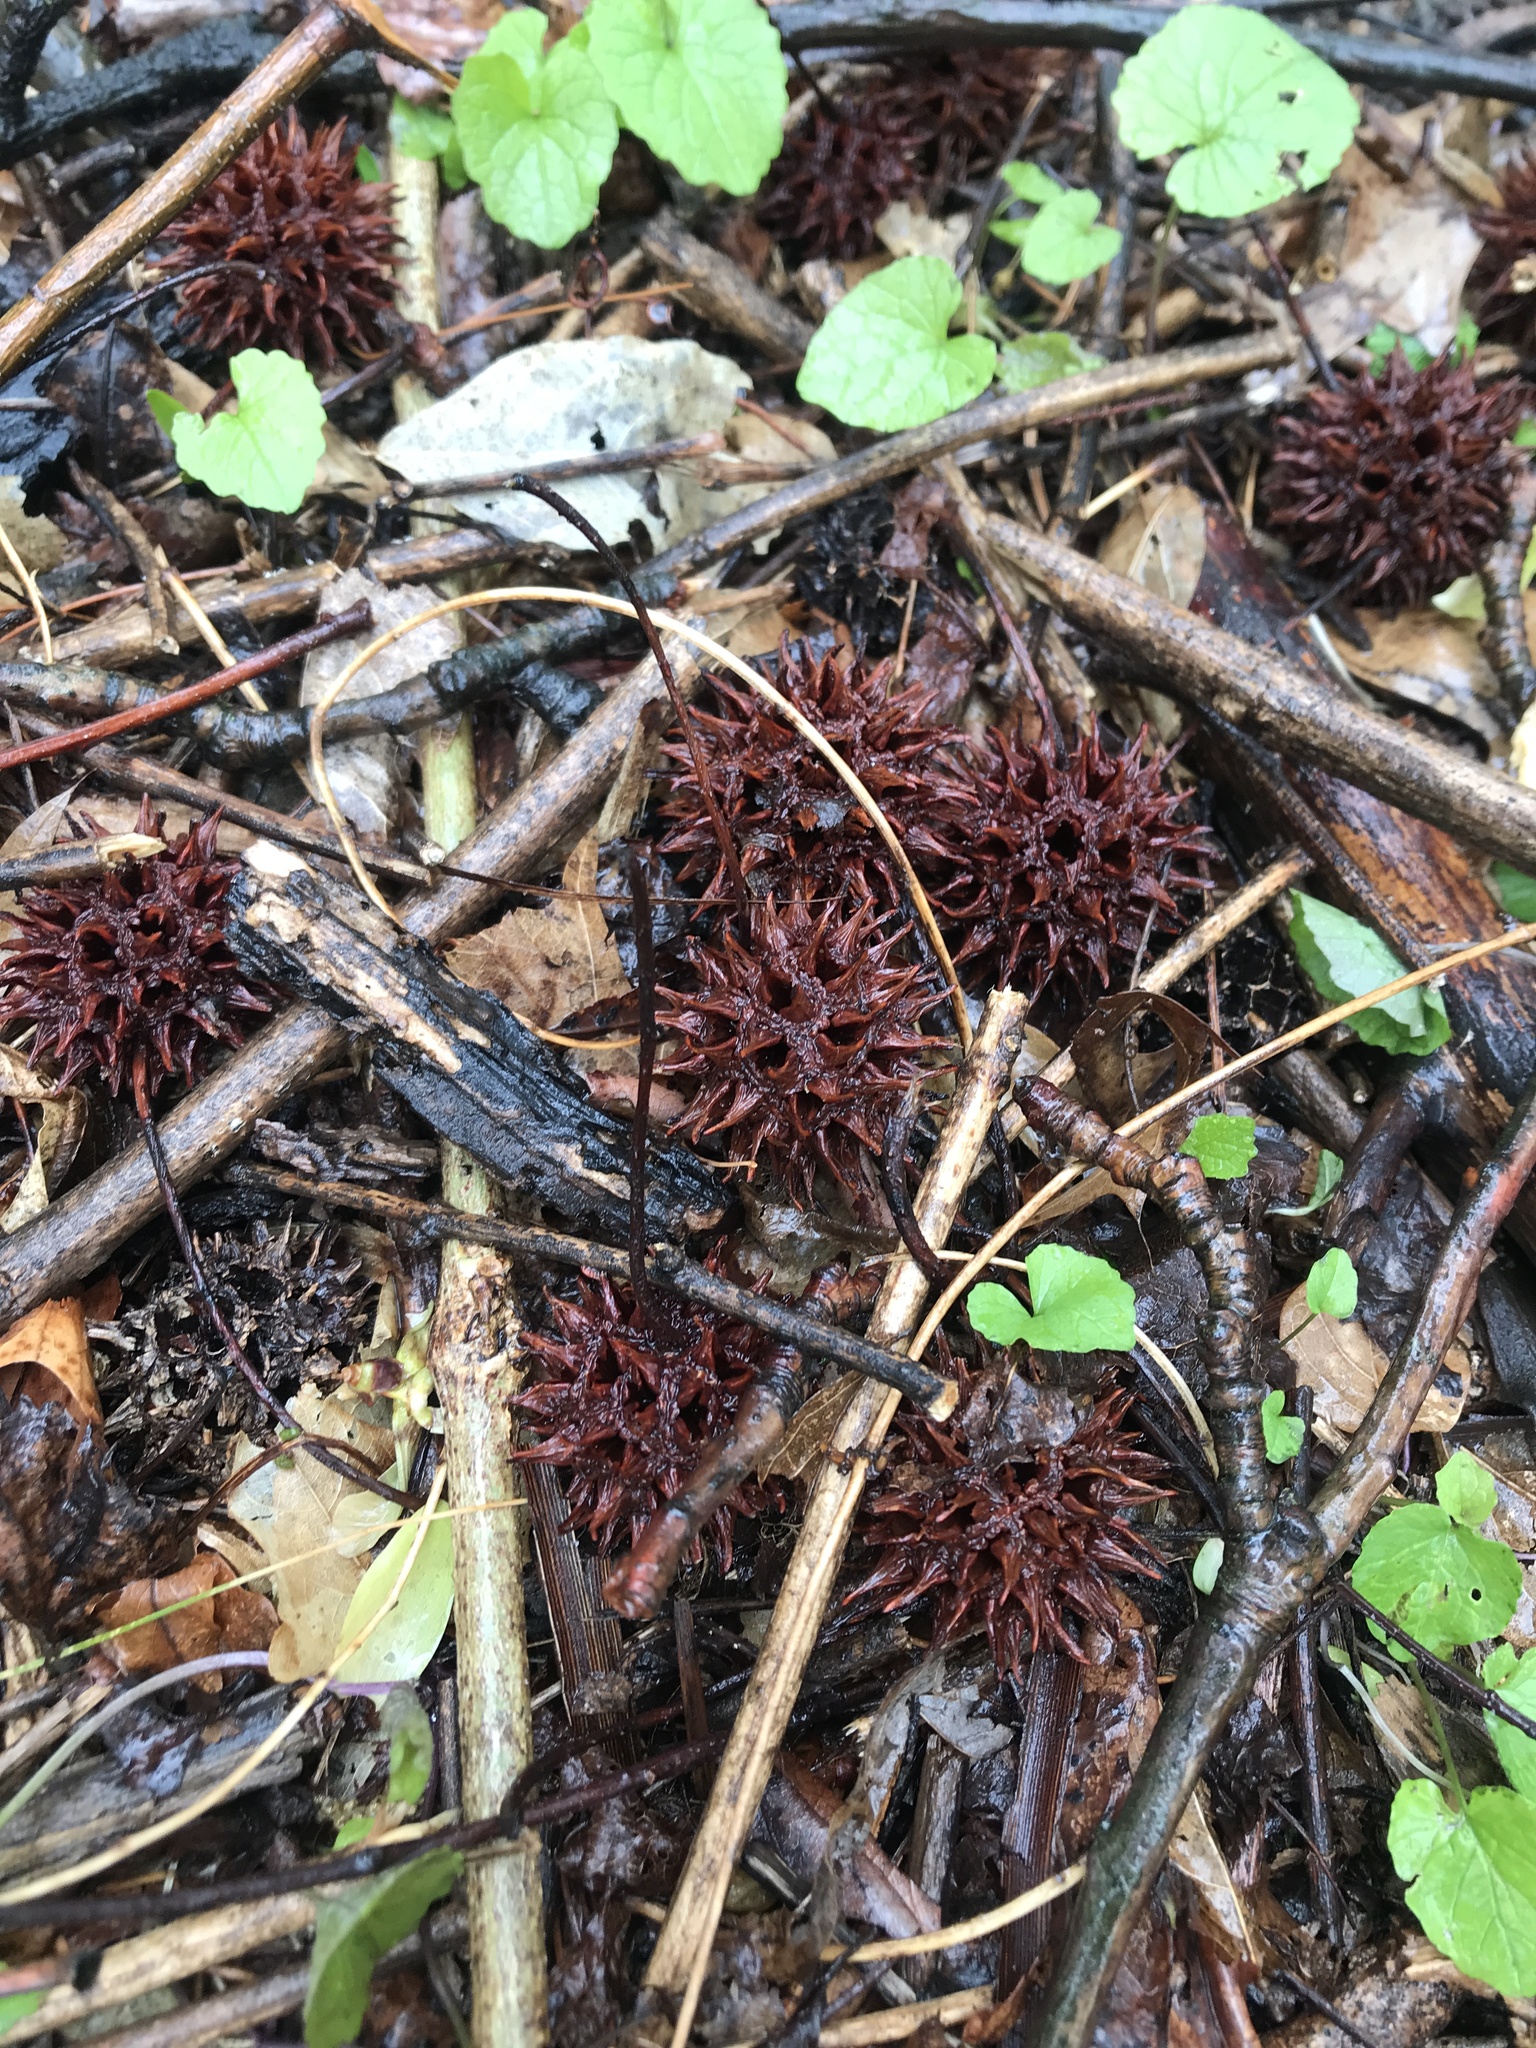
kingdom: Plantae
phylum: Tracheophyta
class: Magnoliopsida
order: Saxifragales
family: Altingiaceae
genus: Liquidambar
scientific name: Liquidambar styraciflua
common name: Sweet gum
